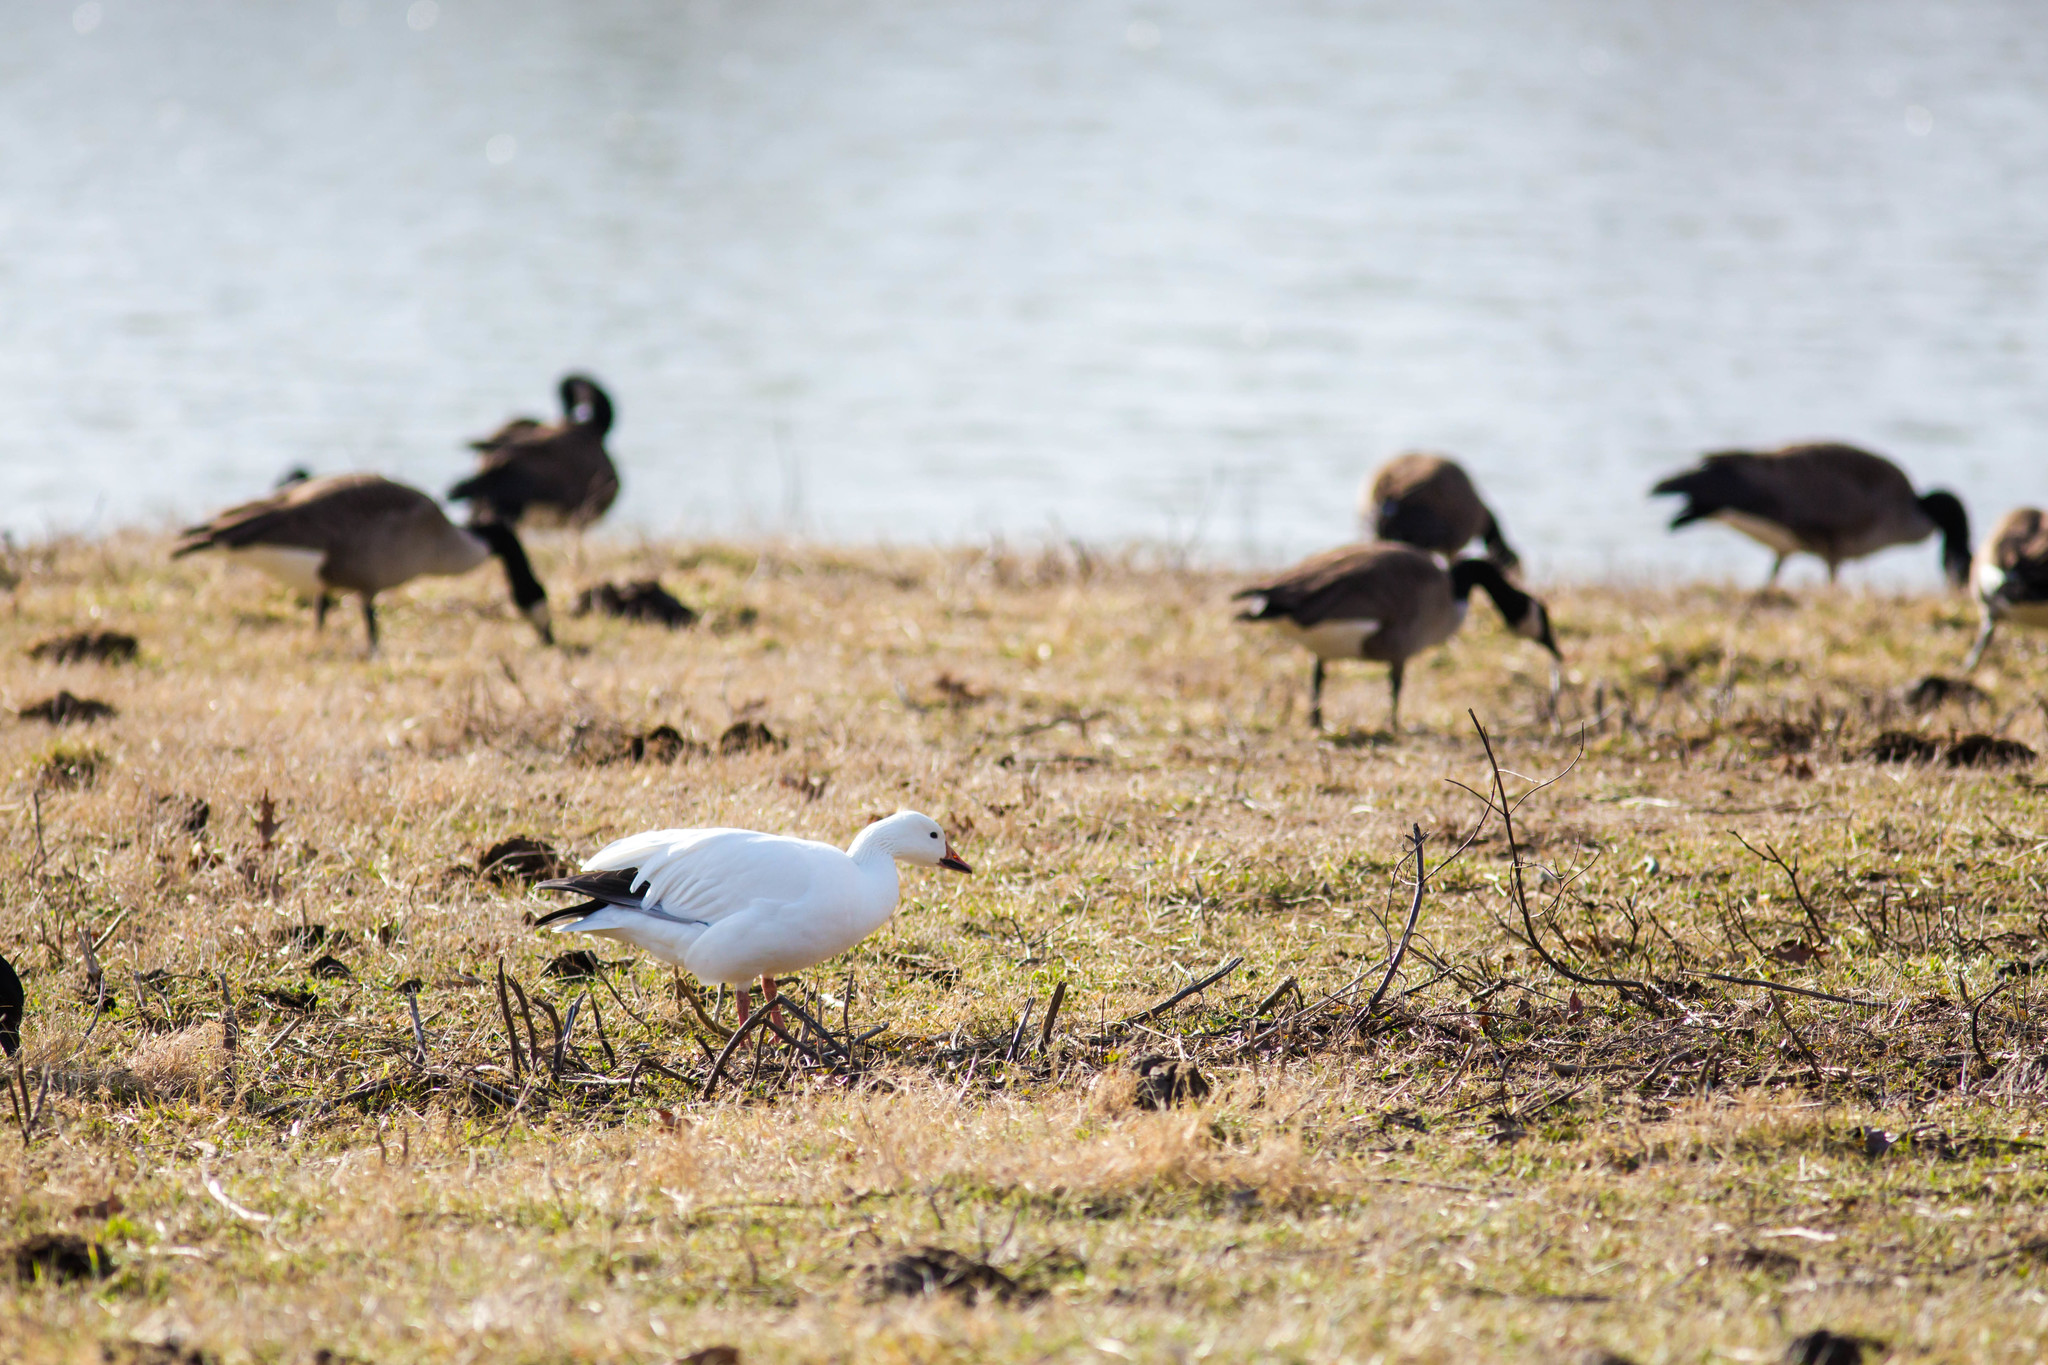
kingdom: Animalia
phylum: Chordata
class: Aves
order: Anseriformes
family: Anatidae
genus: Anser
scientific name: Anser caerulescens
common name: Snow goose
